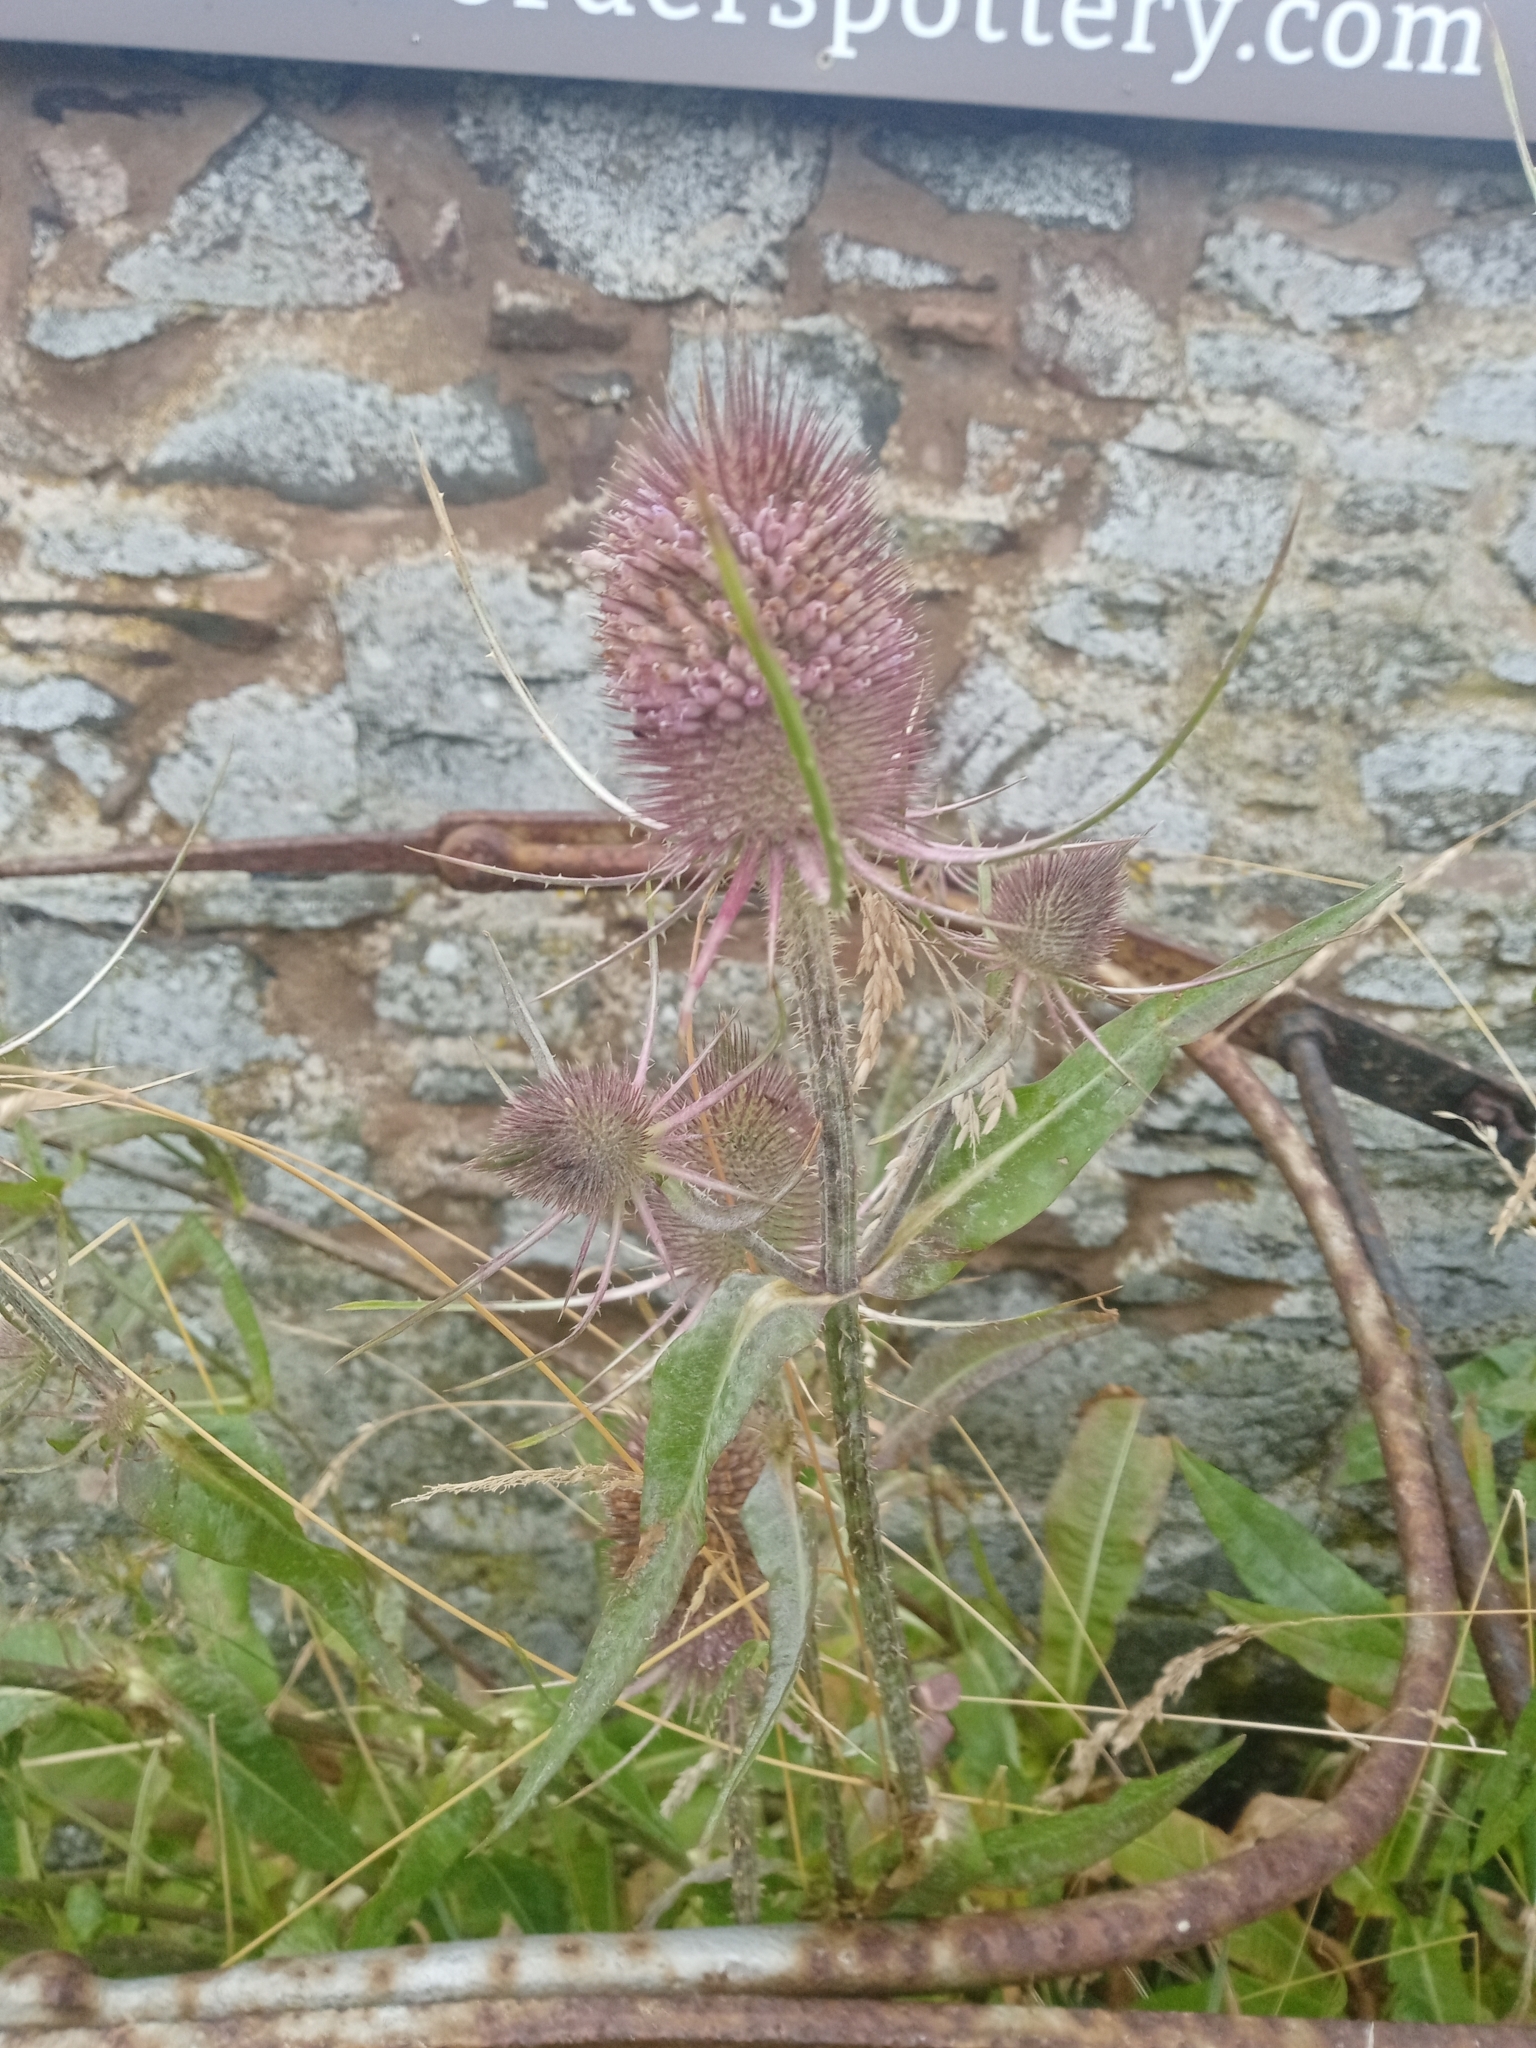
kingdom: Plantae
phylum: Tracheophyta
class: Magnoliopsida
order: Dipsacales
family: Caprifoliaceae
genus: Dipsacus
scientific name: Dipsacus fullonum
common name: Teasel
